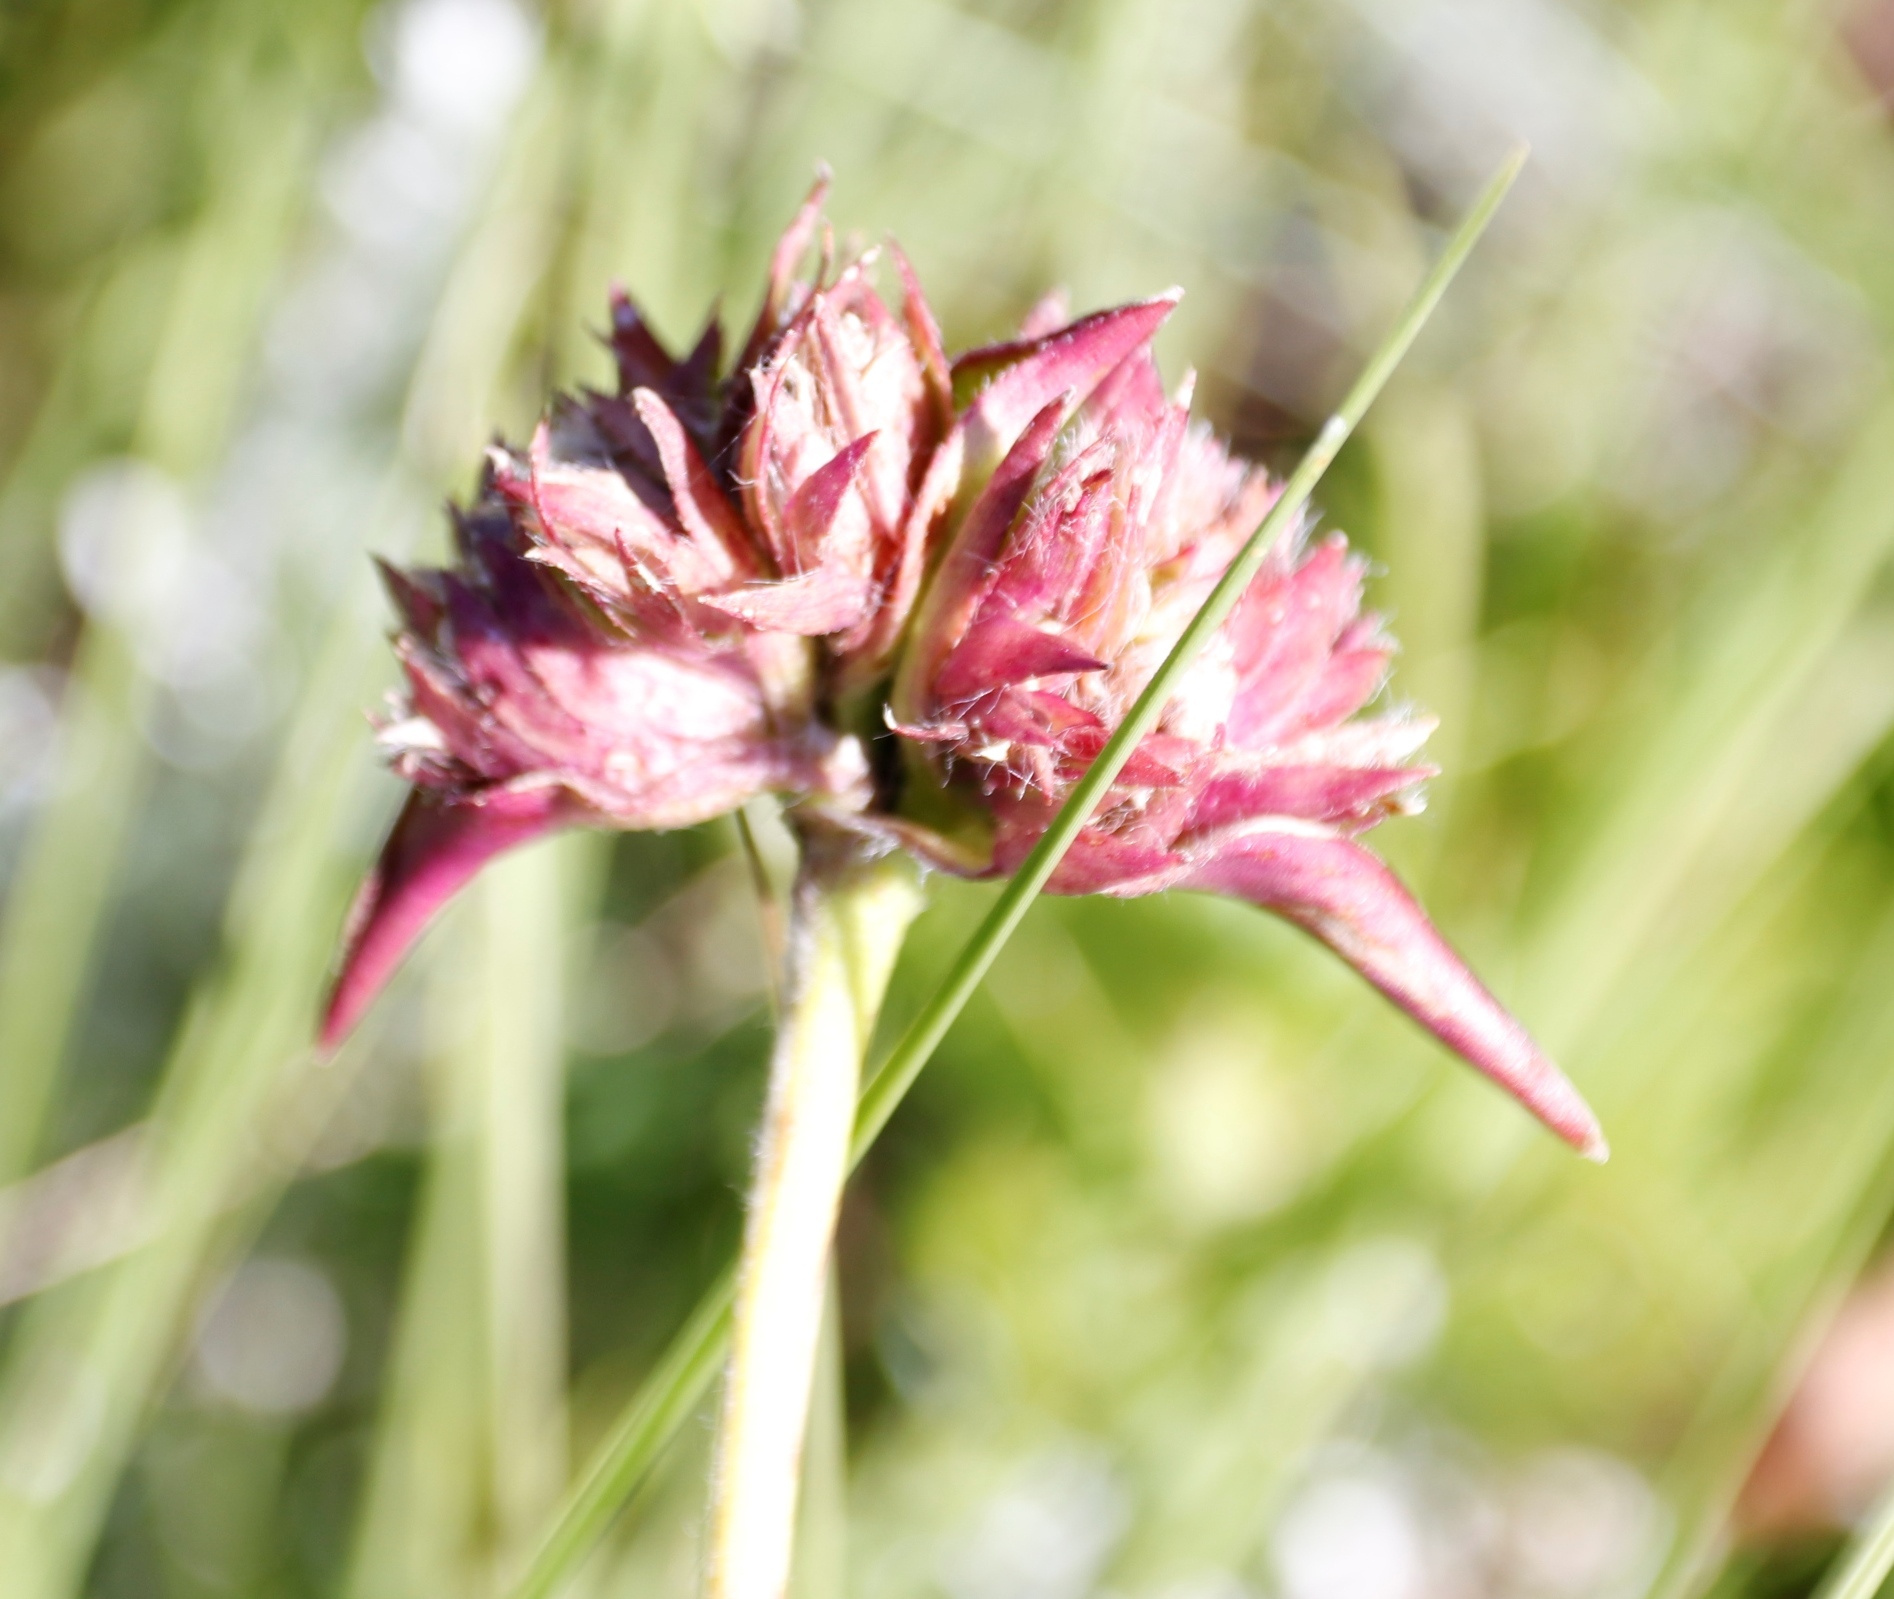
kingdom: Plantae
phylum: Tracheophyta
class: Liliopsida
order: Commelinales
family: Commelinaceae
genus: Cyanotis
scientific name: Cyanotis speciosa
